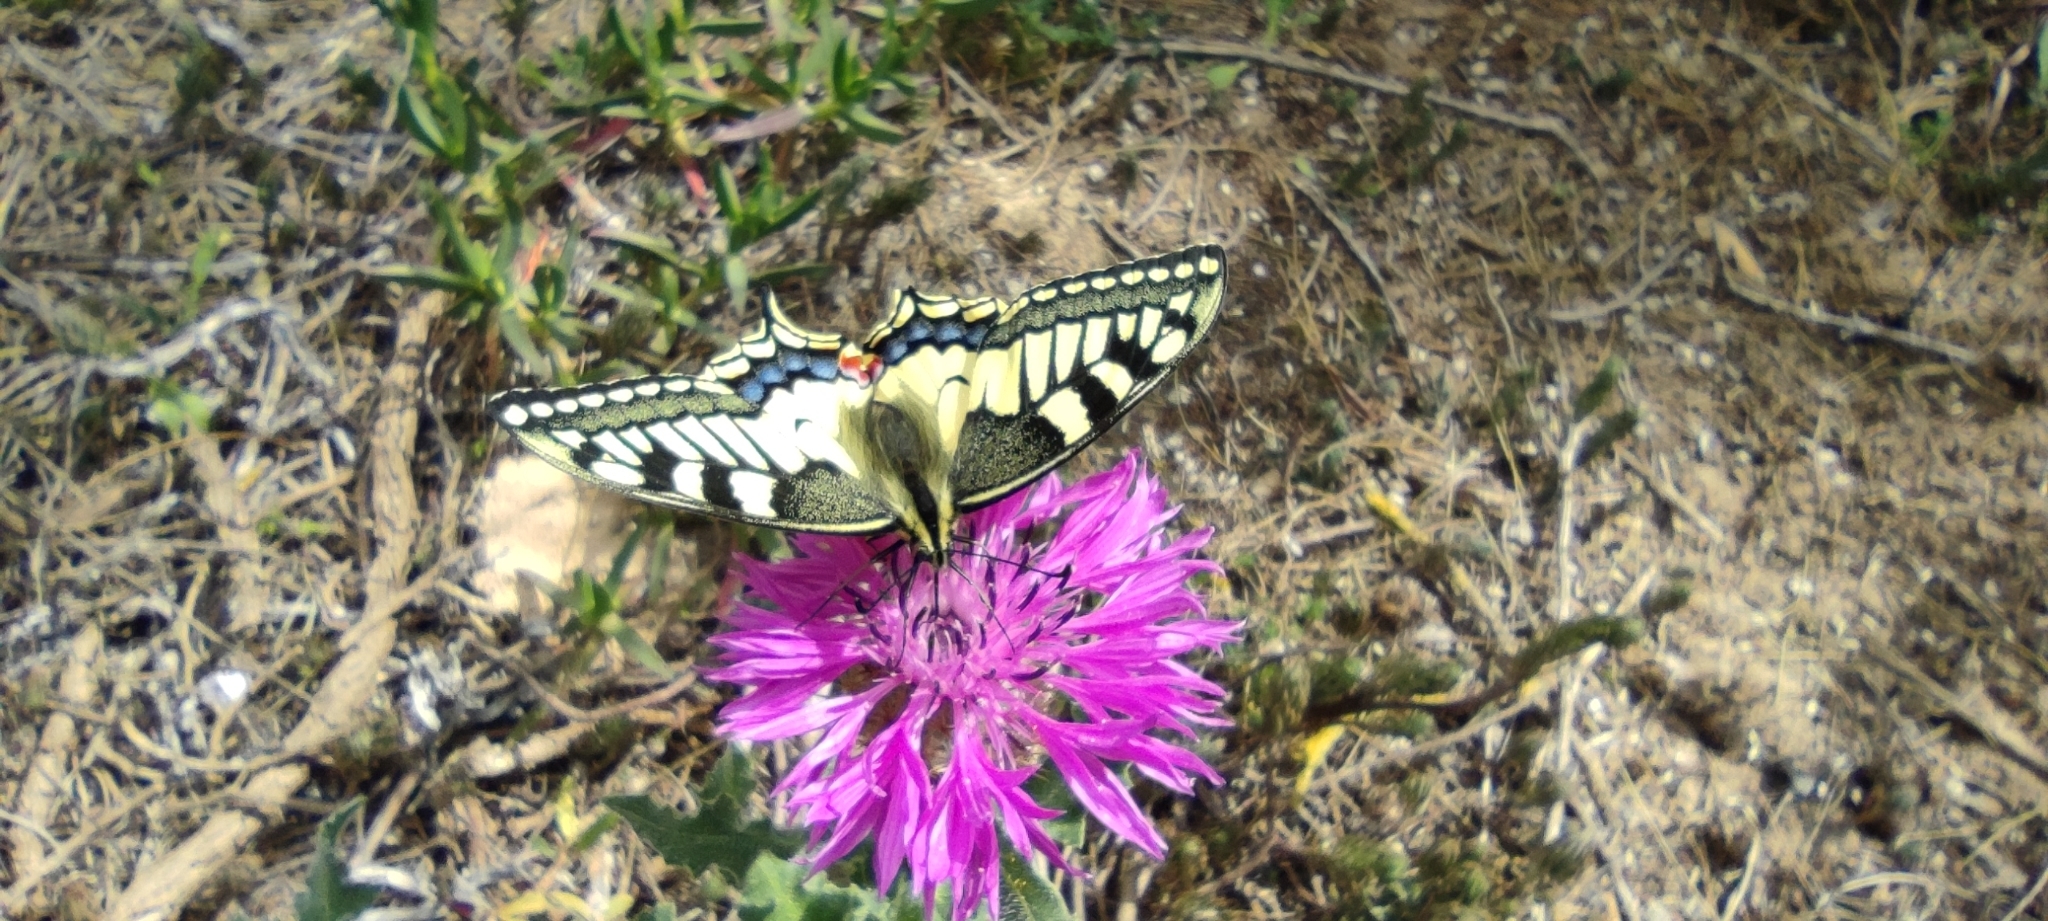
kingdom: Animalia
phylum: Arthropoda
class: Insecta
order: Lepidoptera
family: Papilionidae
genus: Papilio
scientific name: Papilio machaon
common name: Swallowtail
